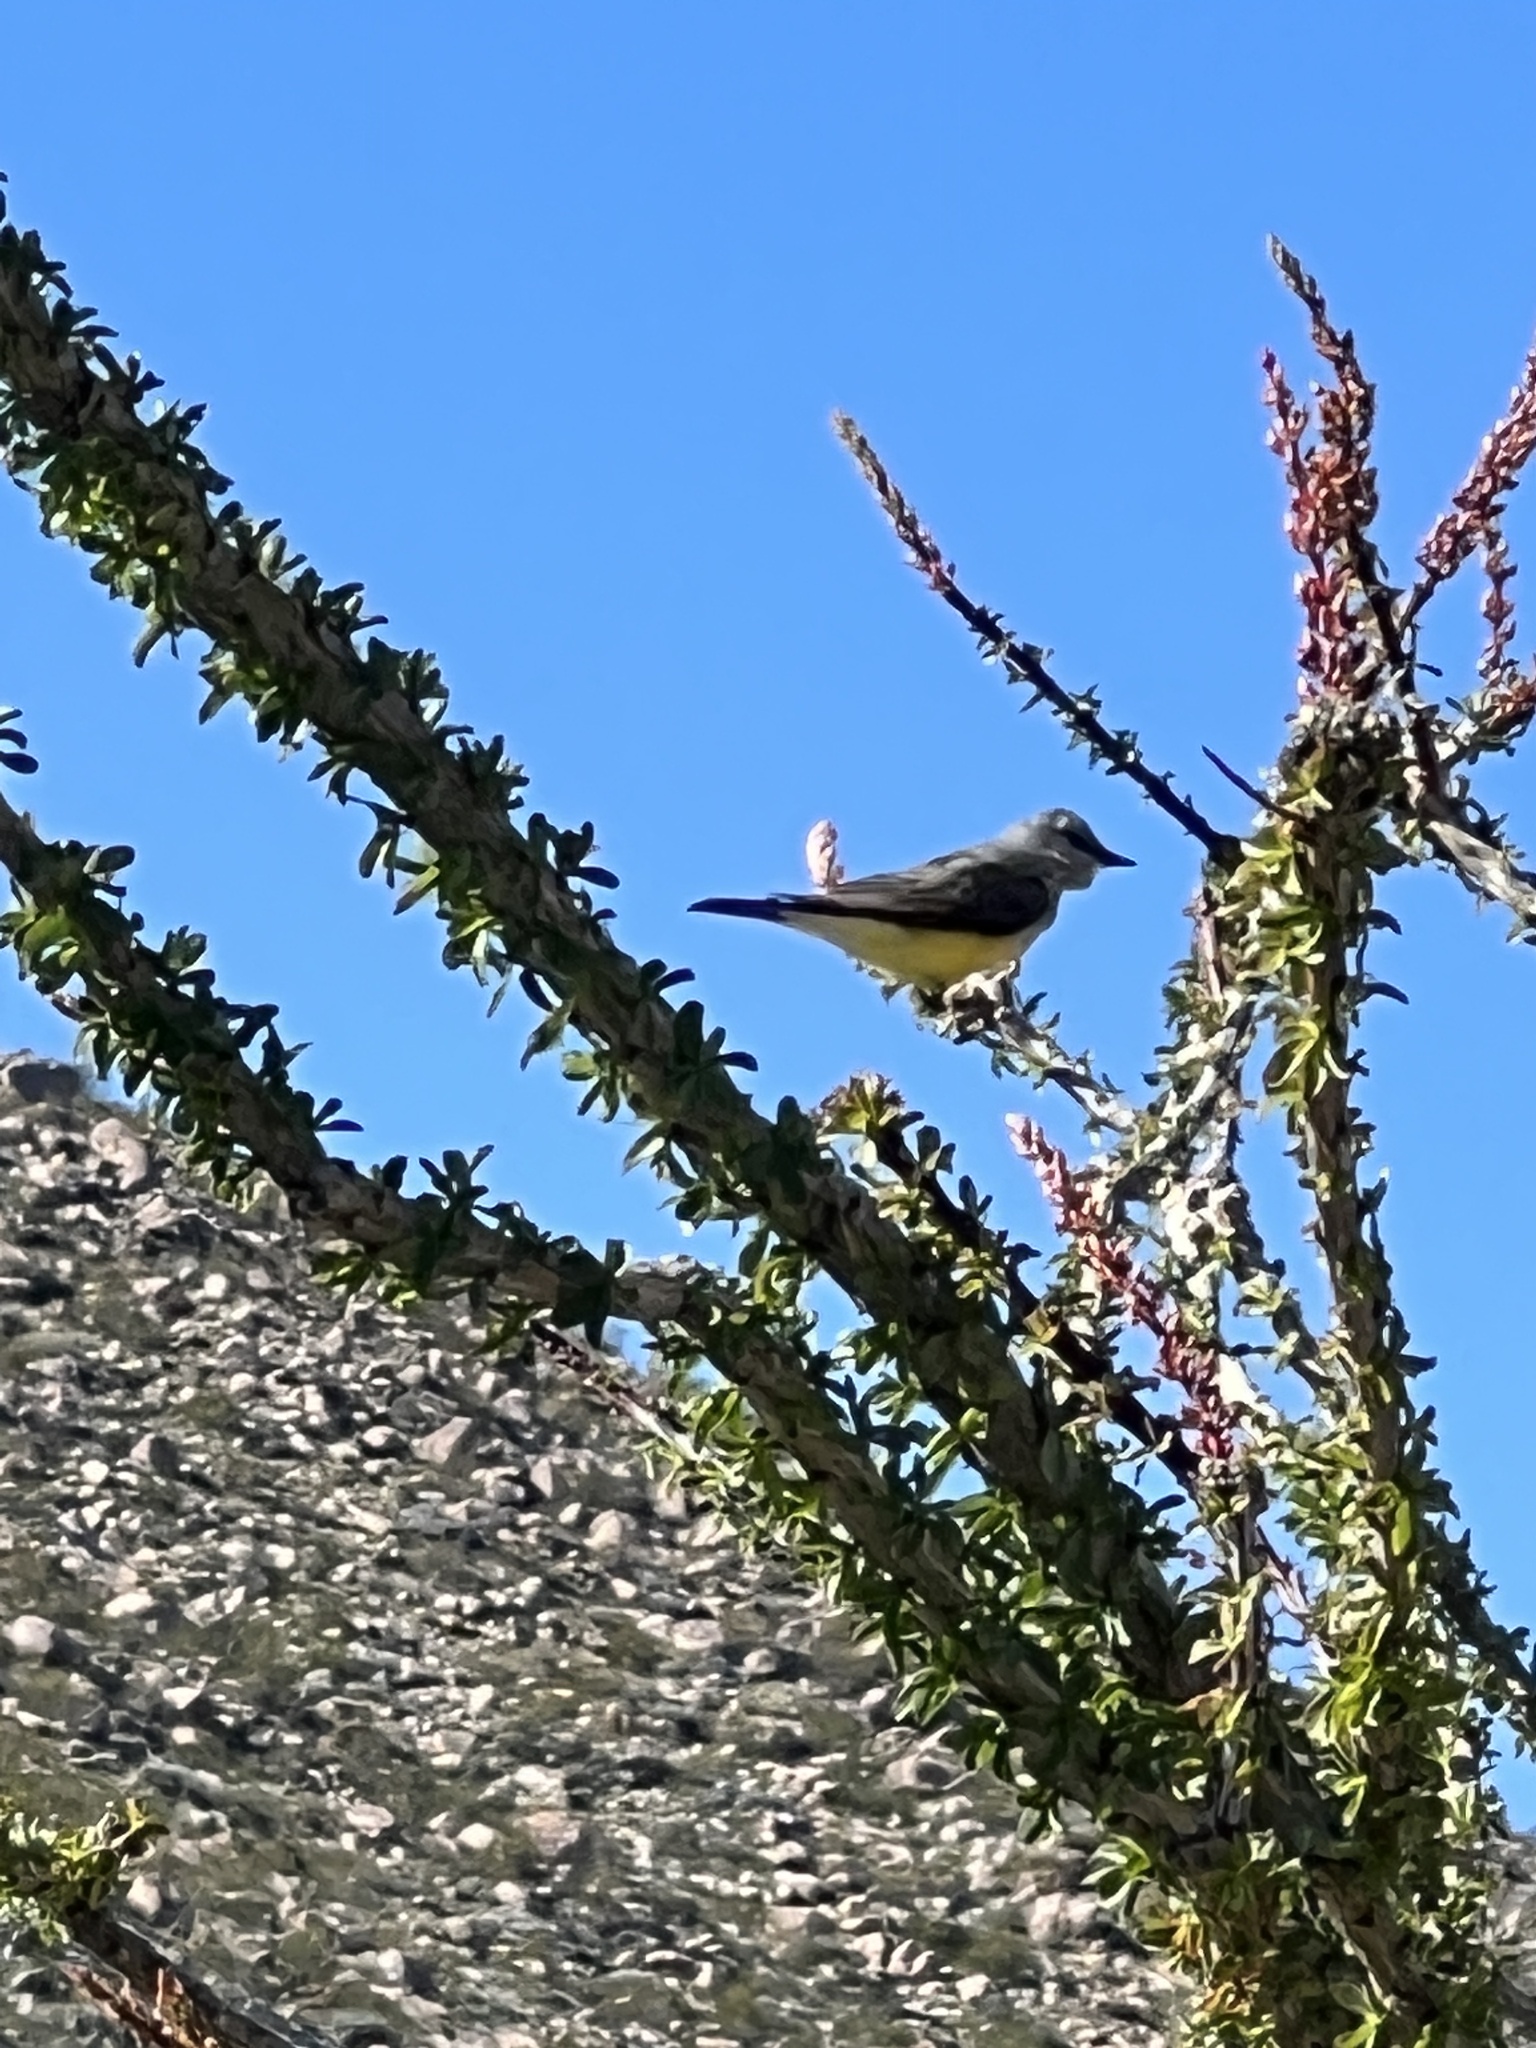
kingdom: Animalia
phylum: Chordata
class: Aves
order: Passeriformes
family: Tyrannidae
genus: Tyrannus
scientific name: Tyrannus verticalis
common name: Western kingbird
